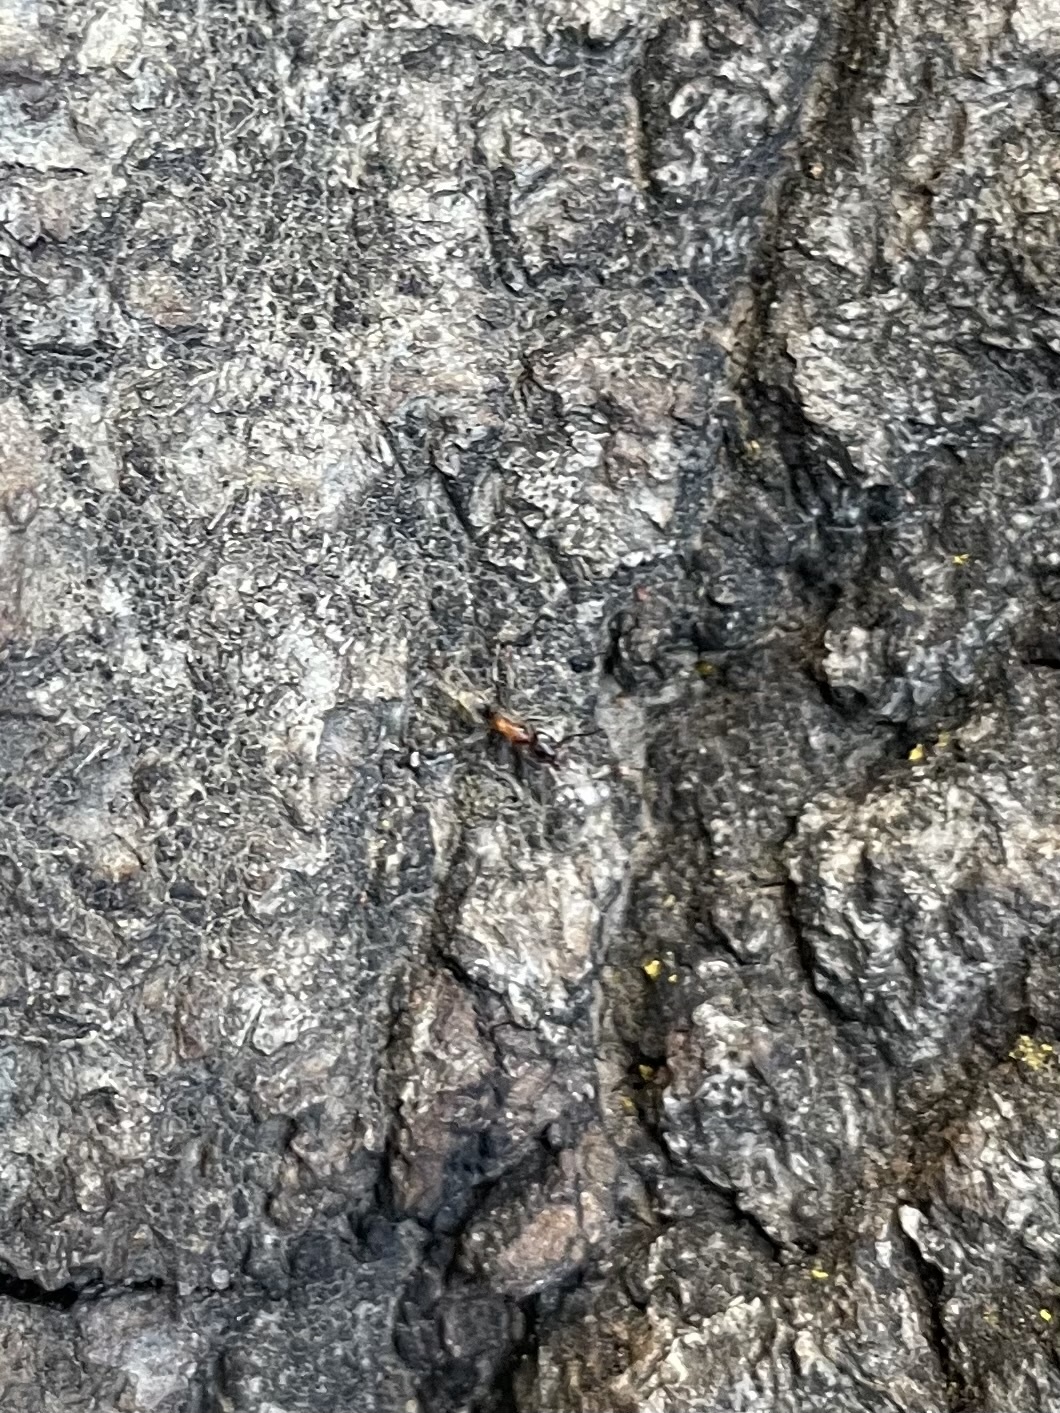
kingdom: Animalia
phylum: Arthropoda
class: Insecta
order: Hymenoptera
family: Formicidae
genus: Liometopum
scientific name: Liometopum occidentale
